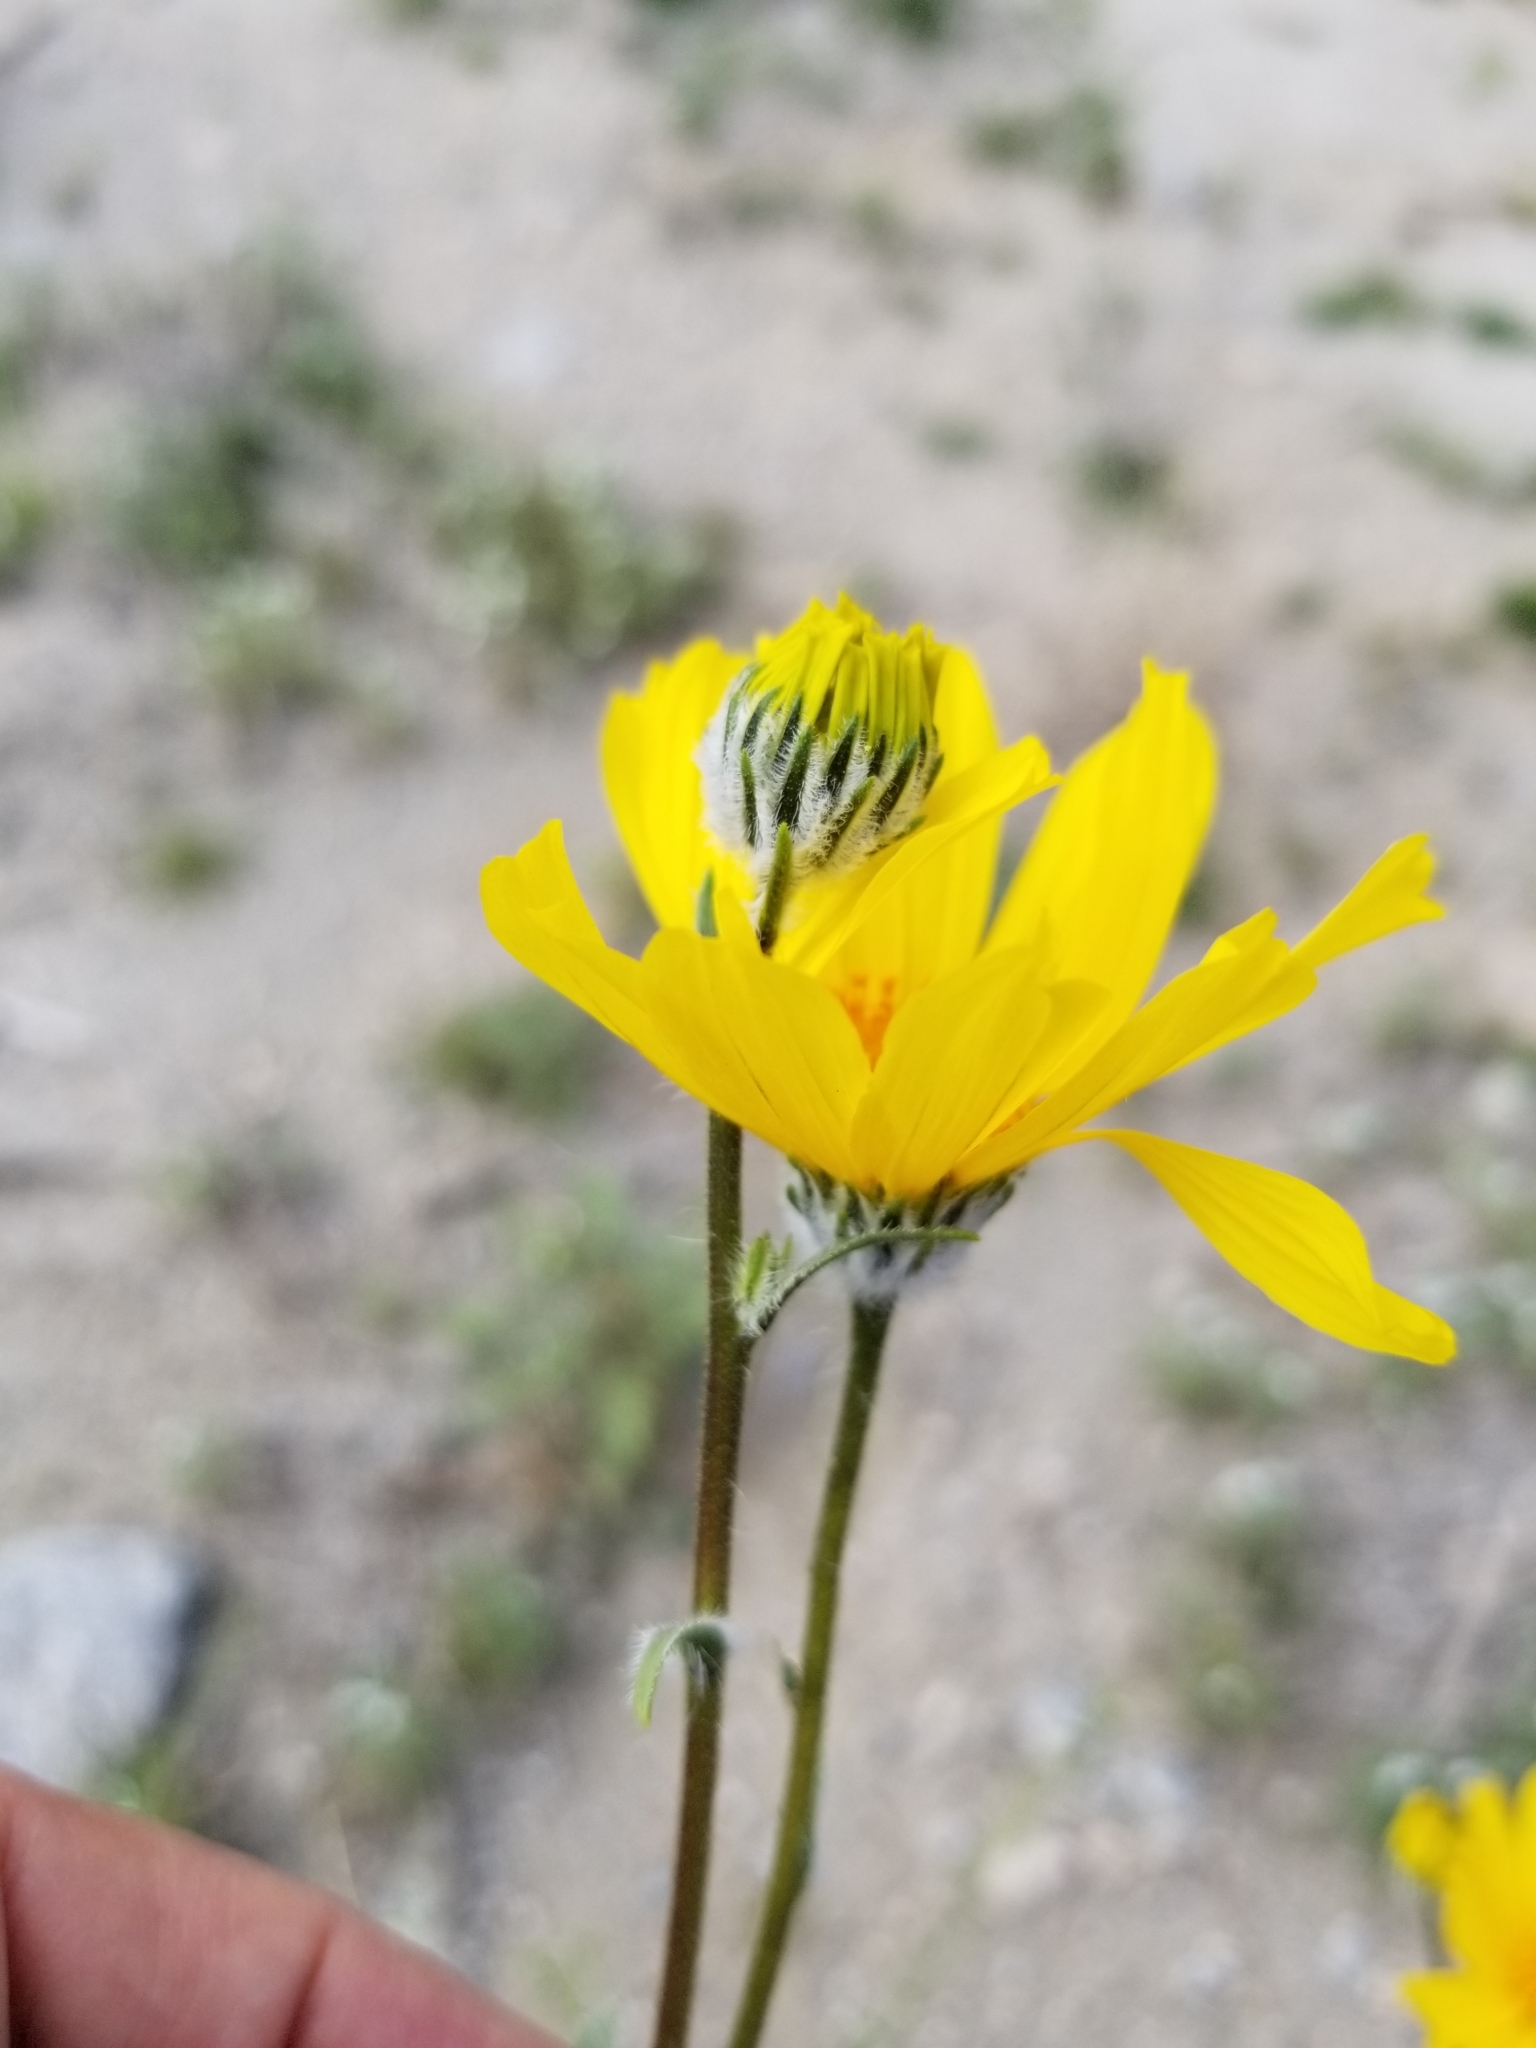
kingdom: Plantae
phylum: Tracheophyta
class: Magnoliopsida
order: Asterales
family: Asteraceae
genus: Geraea
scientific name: Geraea canescens
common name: Desert-gold
